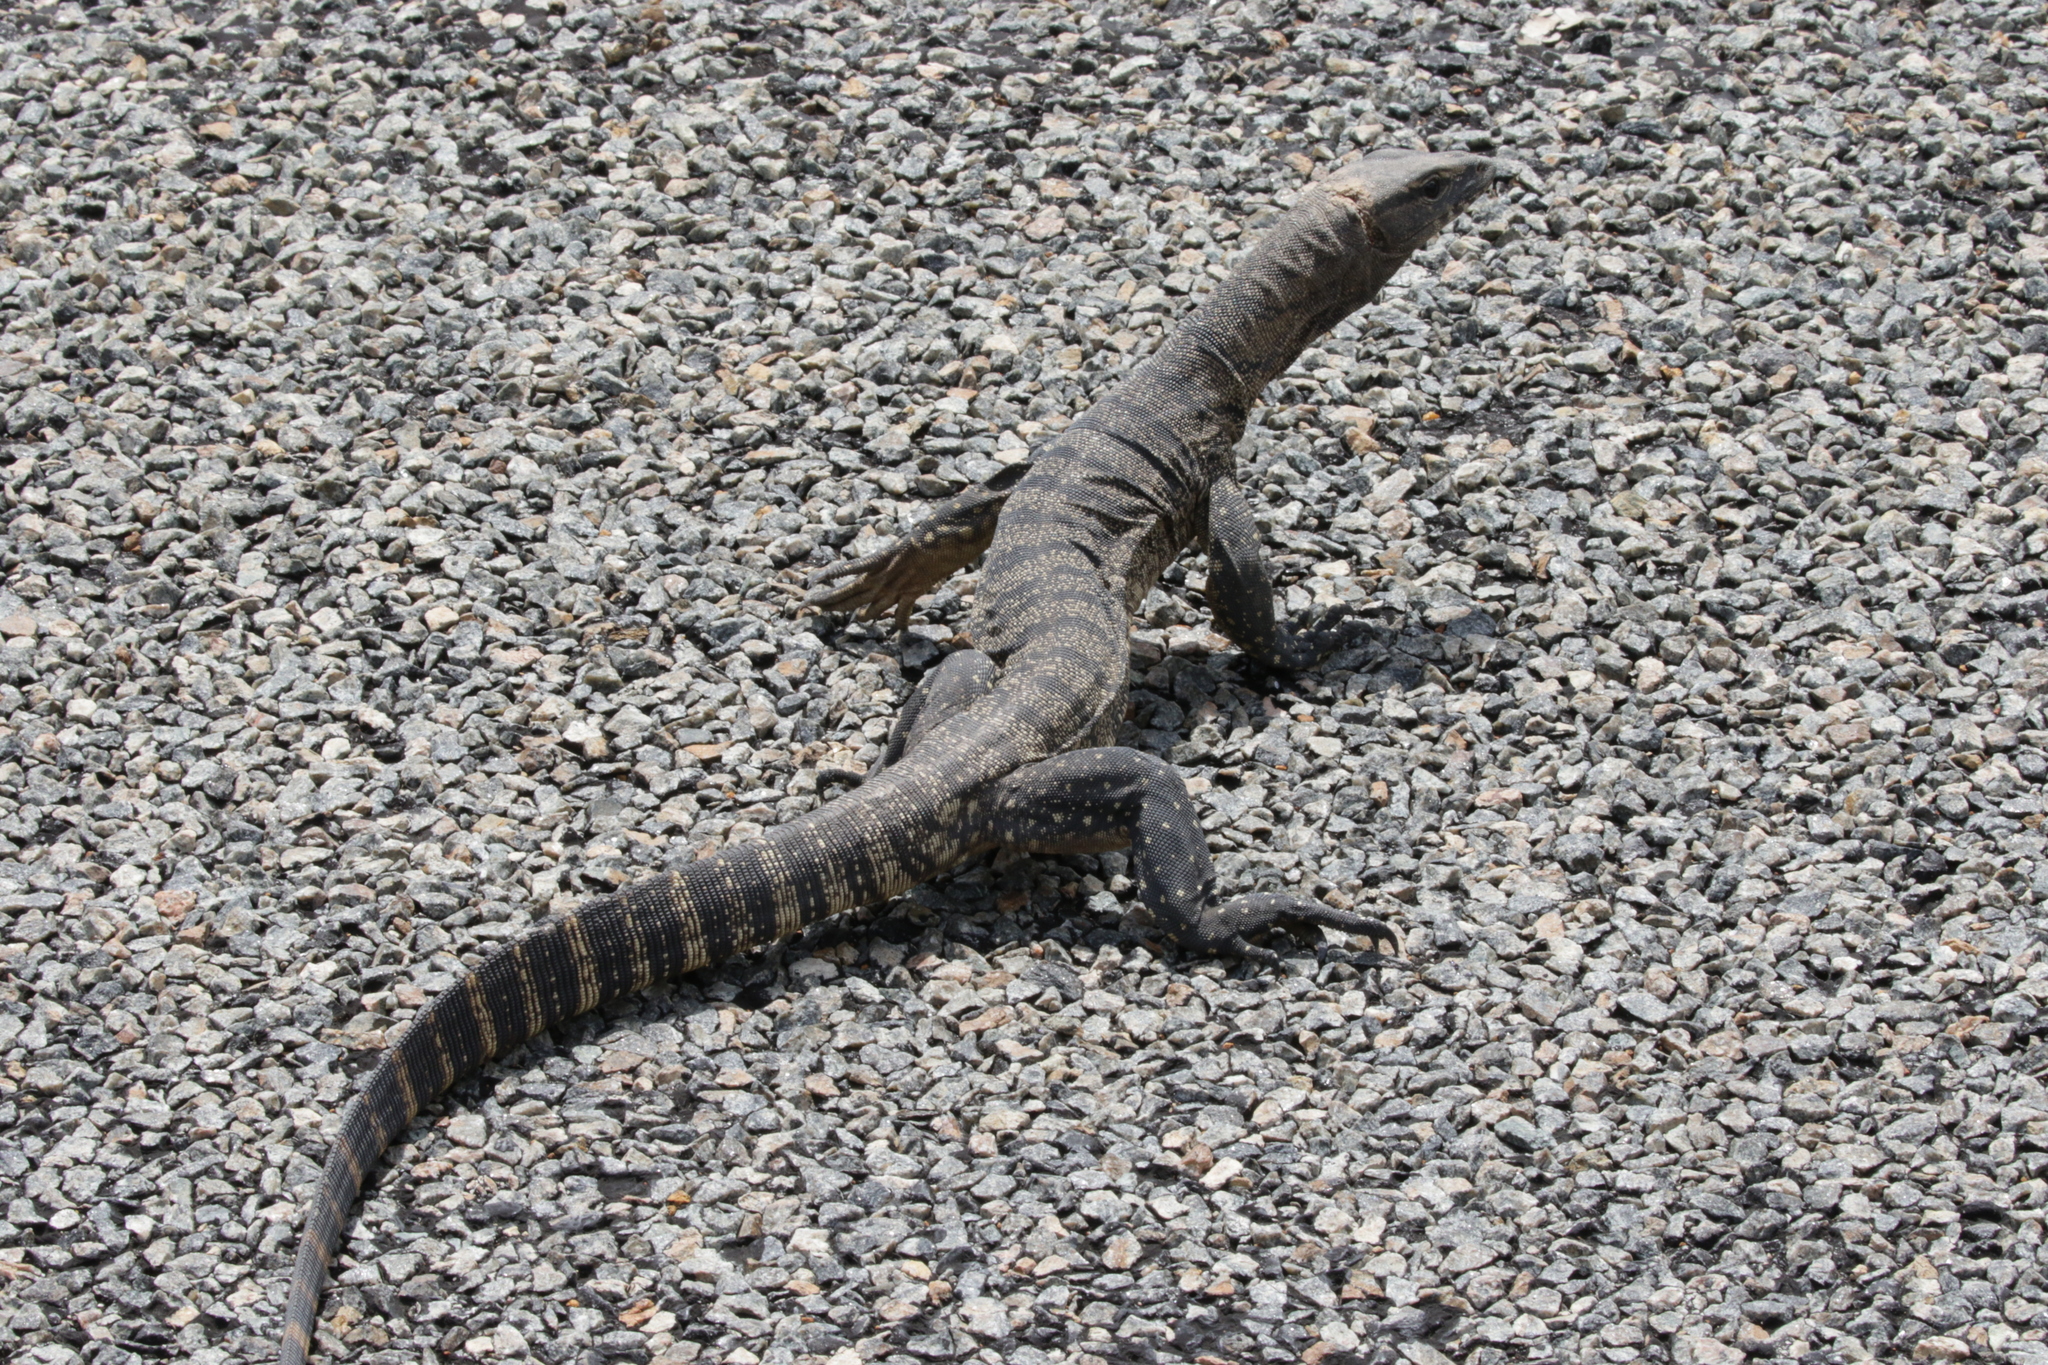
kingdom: Animalia
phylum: Chordata
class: Squamata
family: Varanidae
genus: Varanus
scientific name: Varanus rosenbergi
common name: Heath monitor
